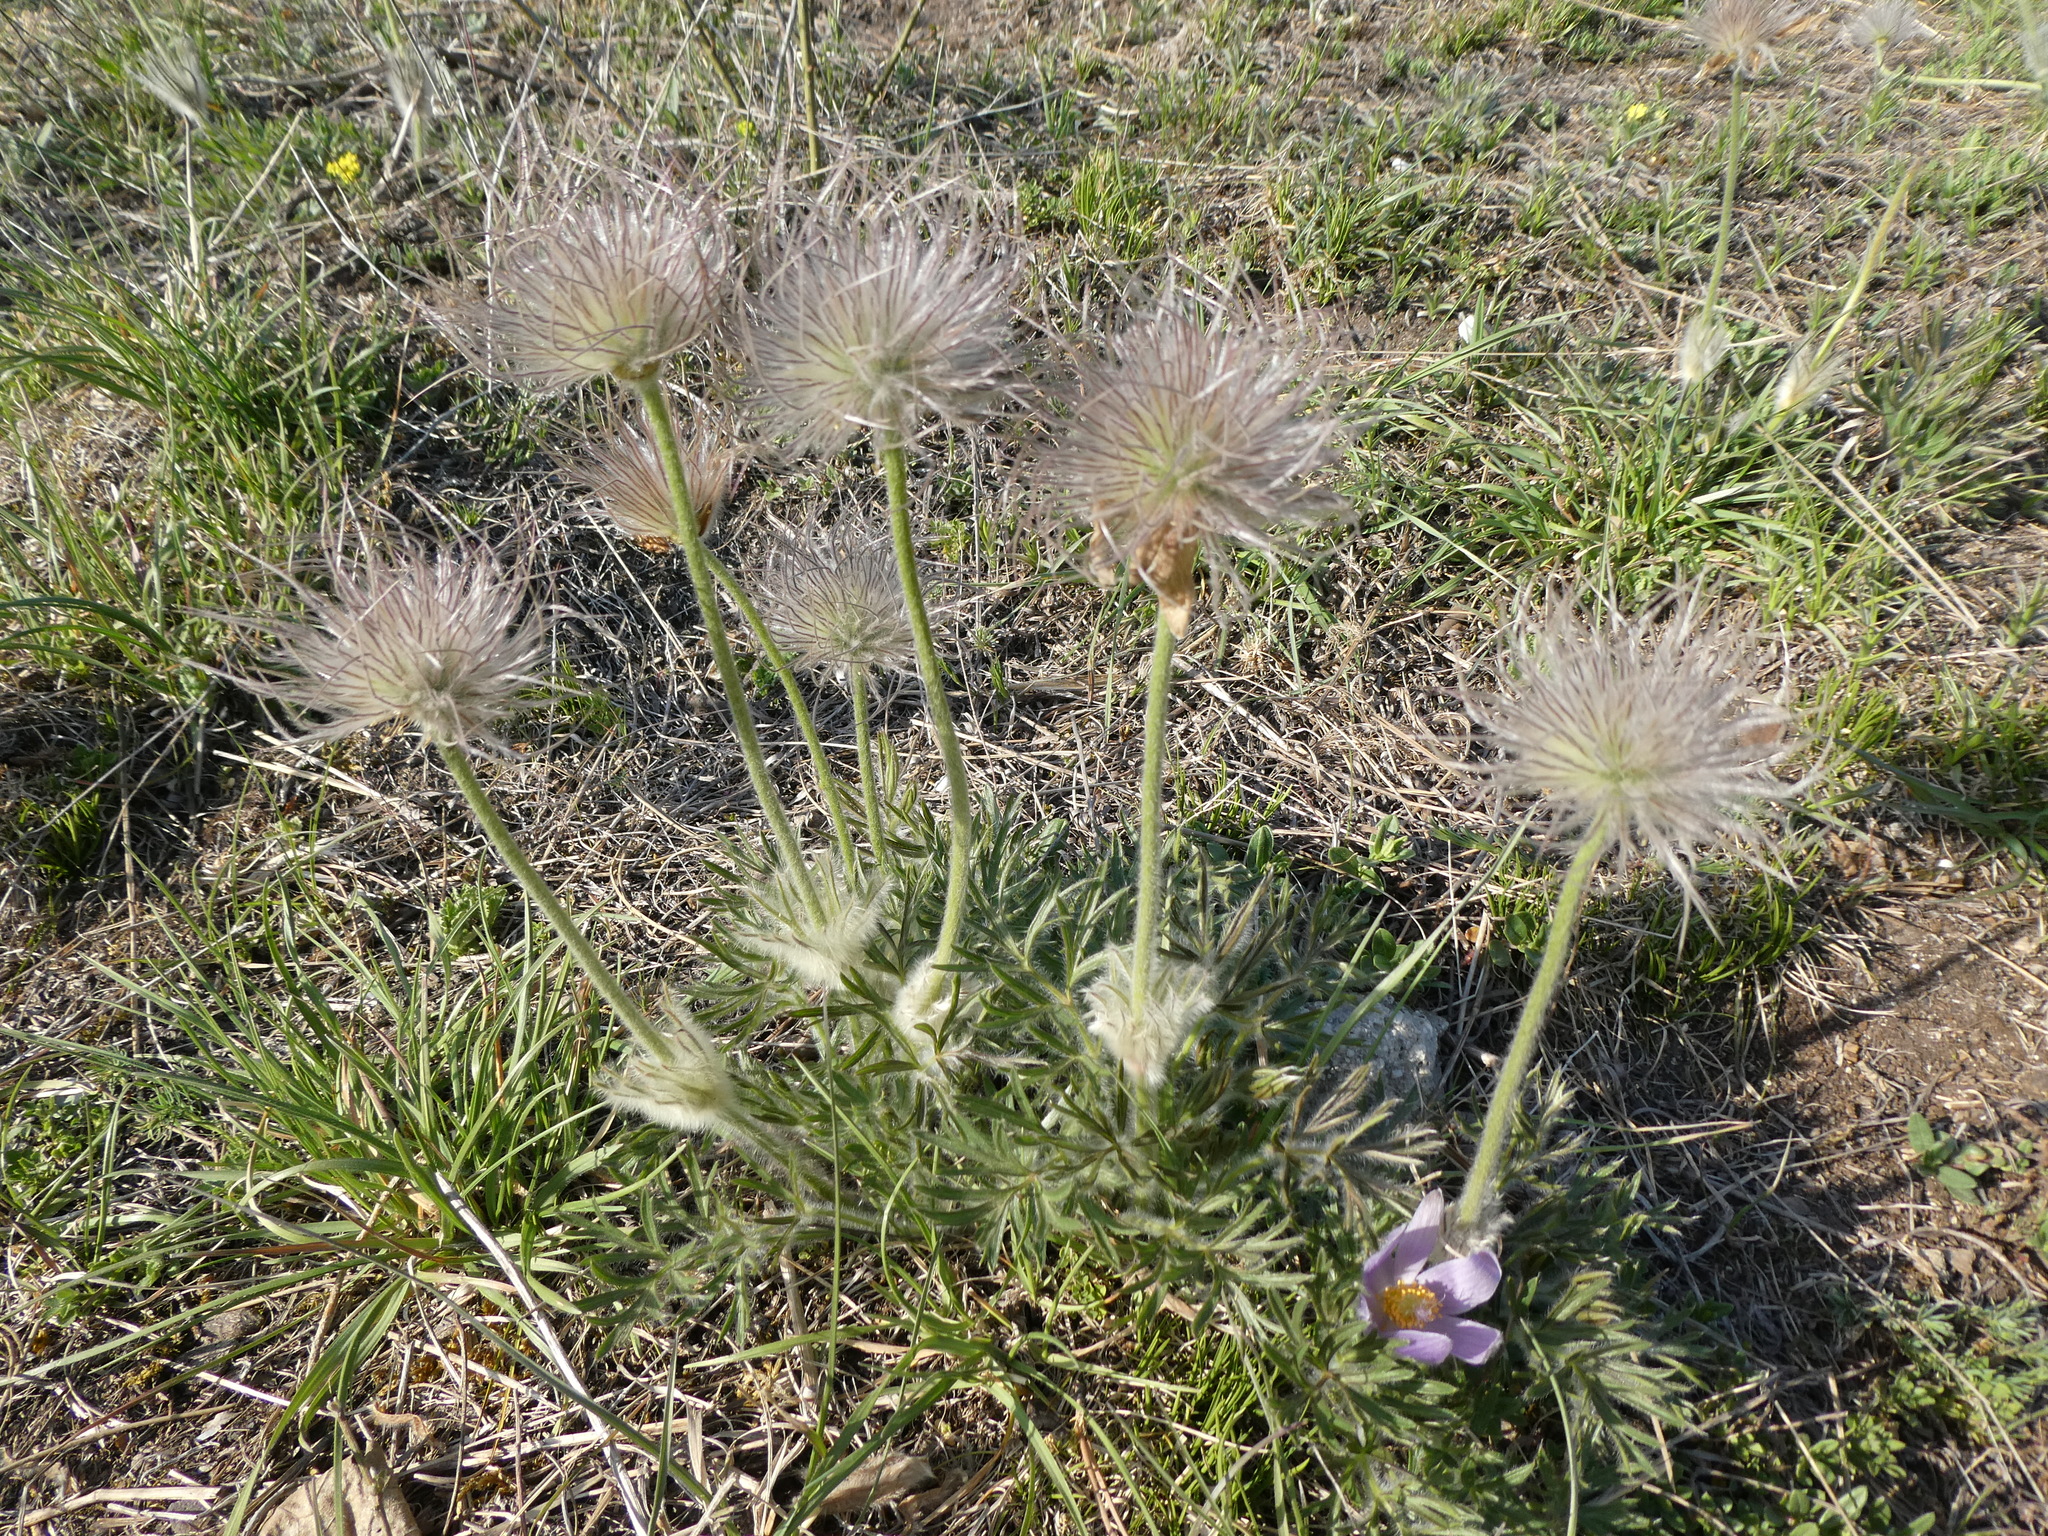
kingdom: Plantae
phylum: Tracheophyta
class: Magnoliopsida
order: Ranunculales
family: Ranunculaceae
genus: Pulsatilla
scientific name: Pulsatilla grandis
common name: Greater pasque flower
